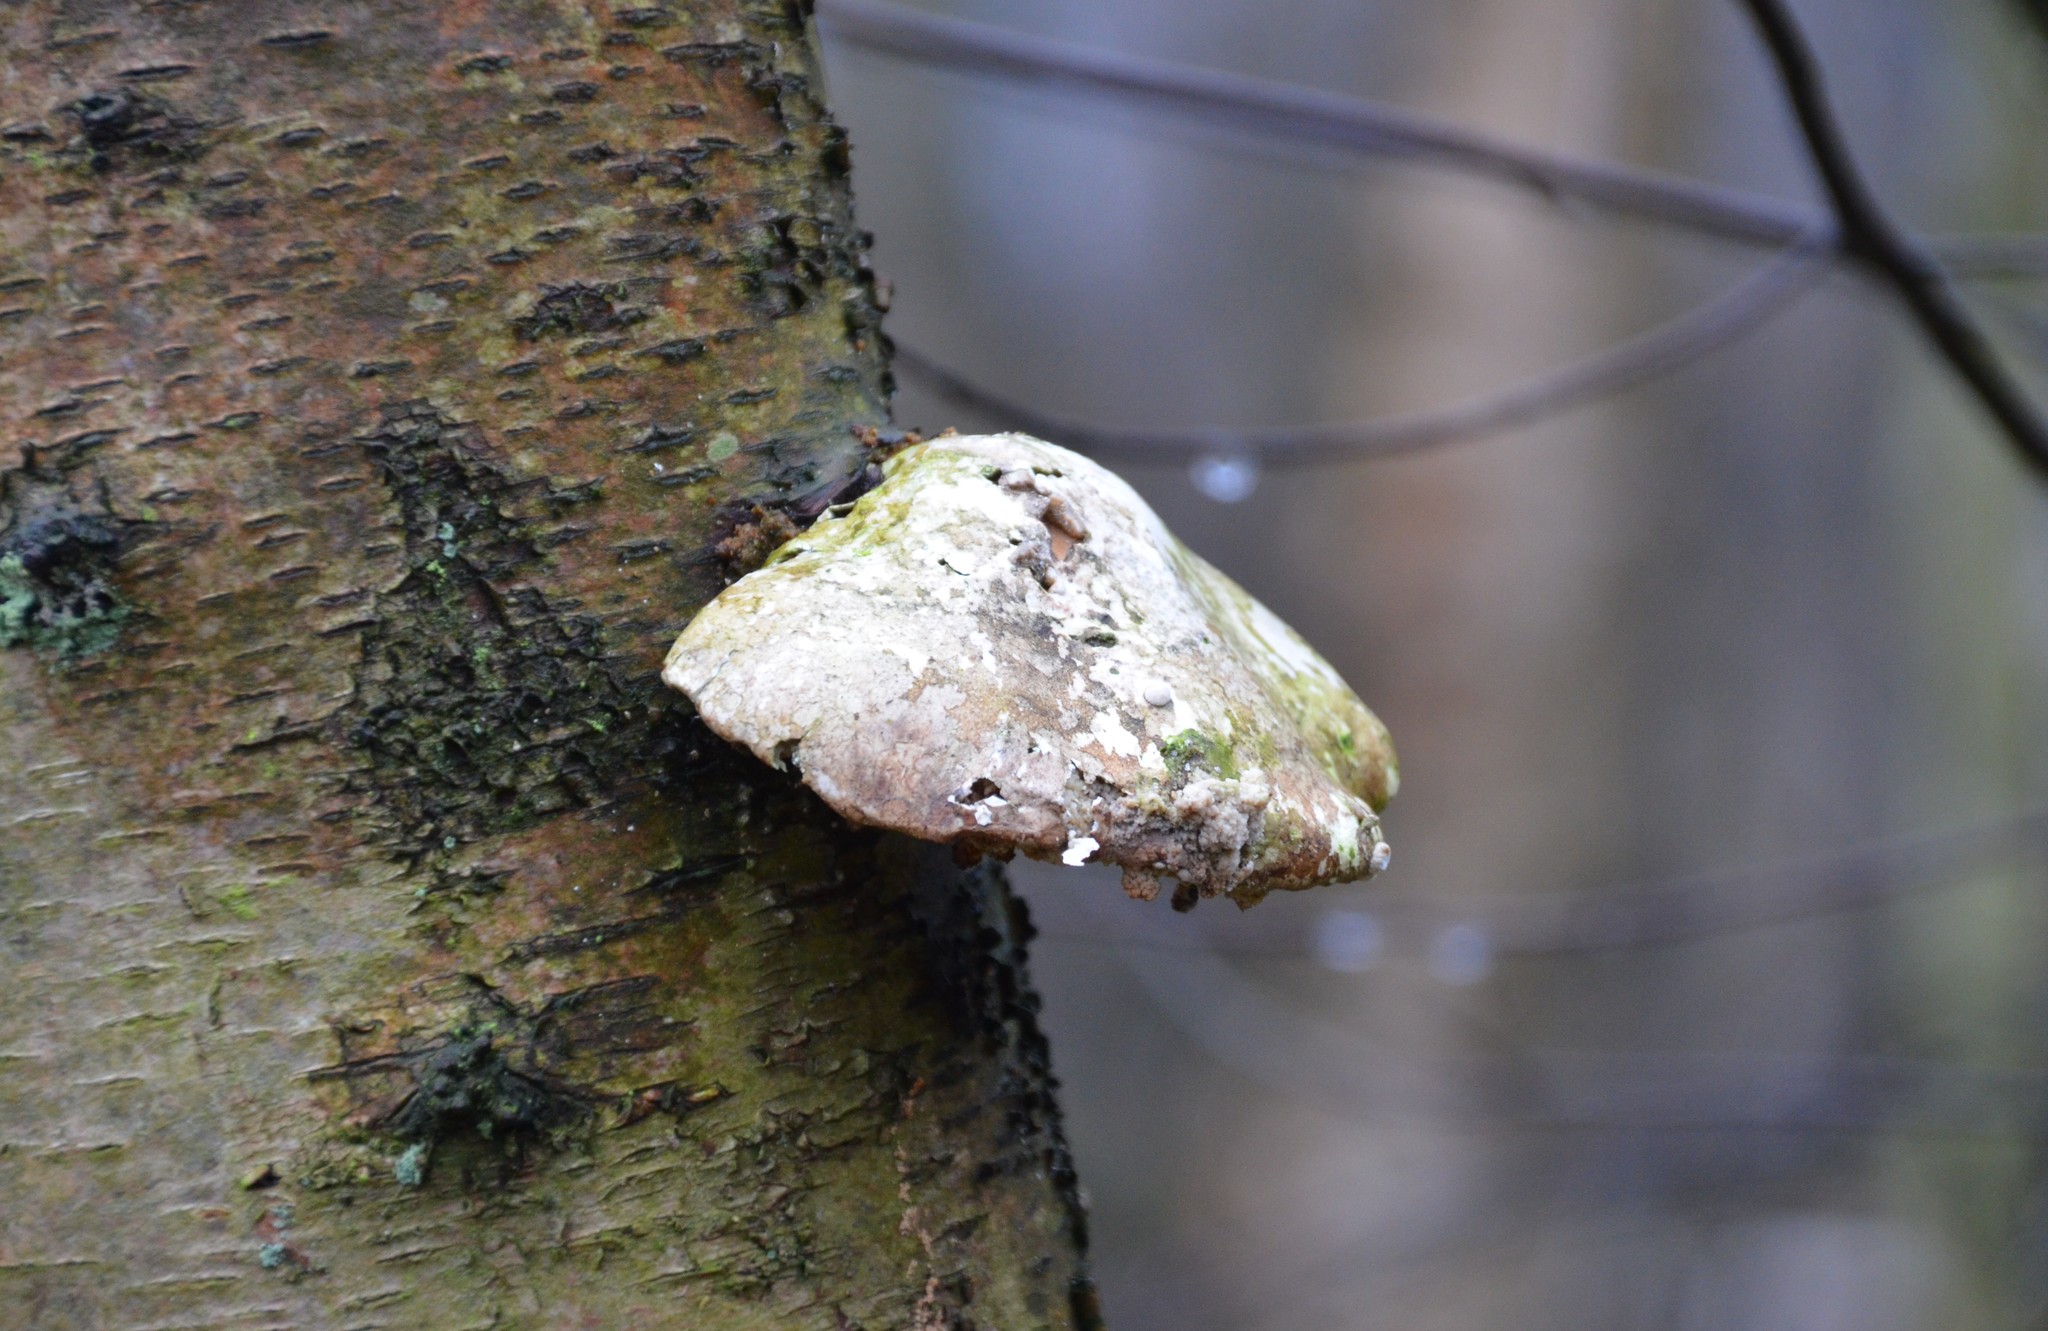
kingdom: Fungi
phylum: Basidiomycota
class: Agaricomycetes
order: Polyporales
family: Fomitopsidaceae
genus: Fomitopsis
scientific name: Fomitopsis betulina
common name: Birch polypore
